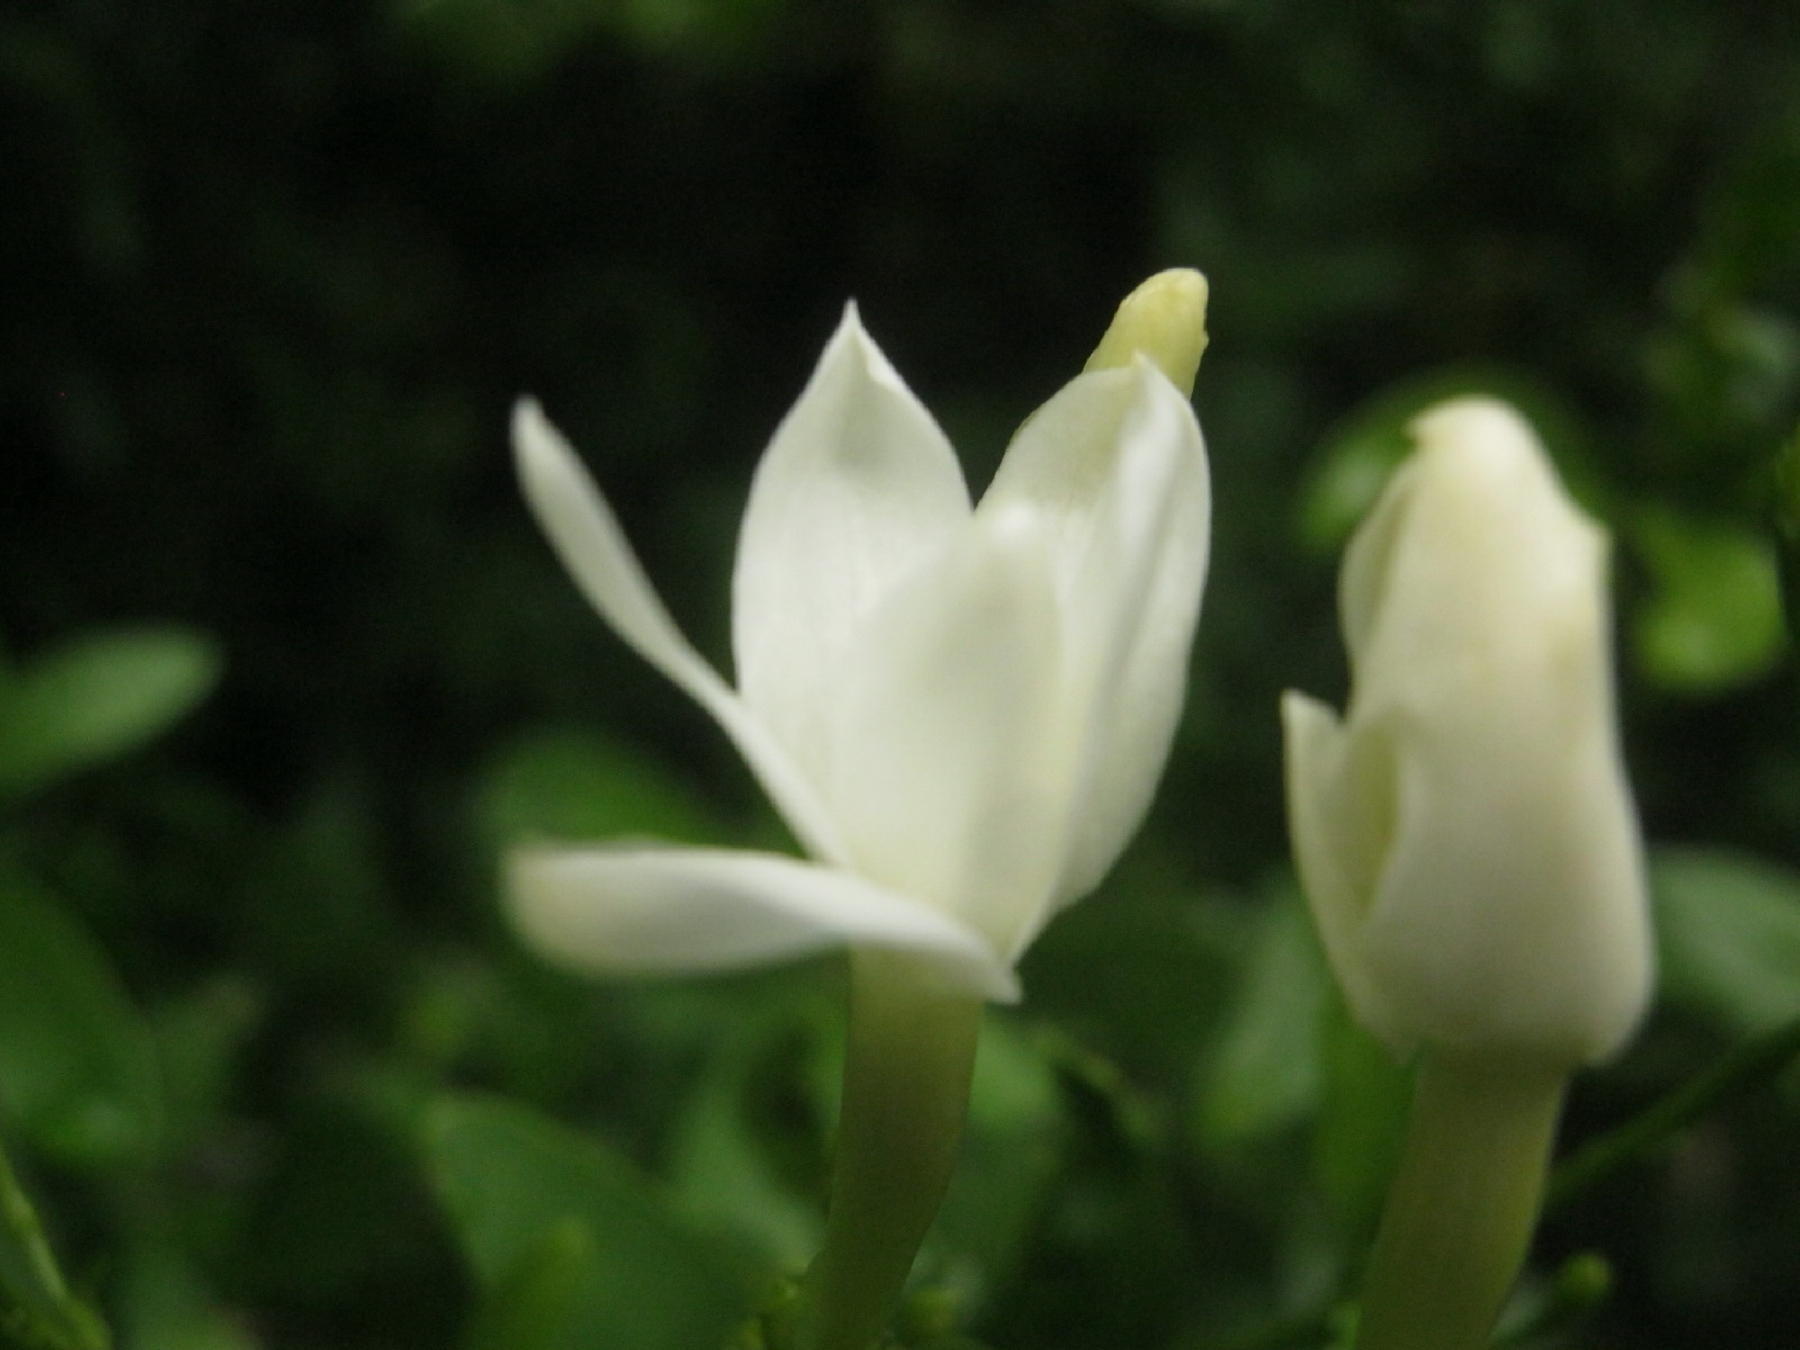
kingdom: Plantae
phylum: Tracheophyta
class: Magnoliopsida
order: Lamiales
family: Oleaceae
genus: Jasminum
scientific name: Jasminum angulare
